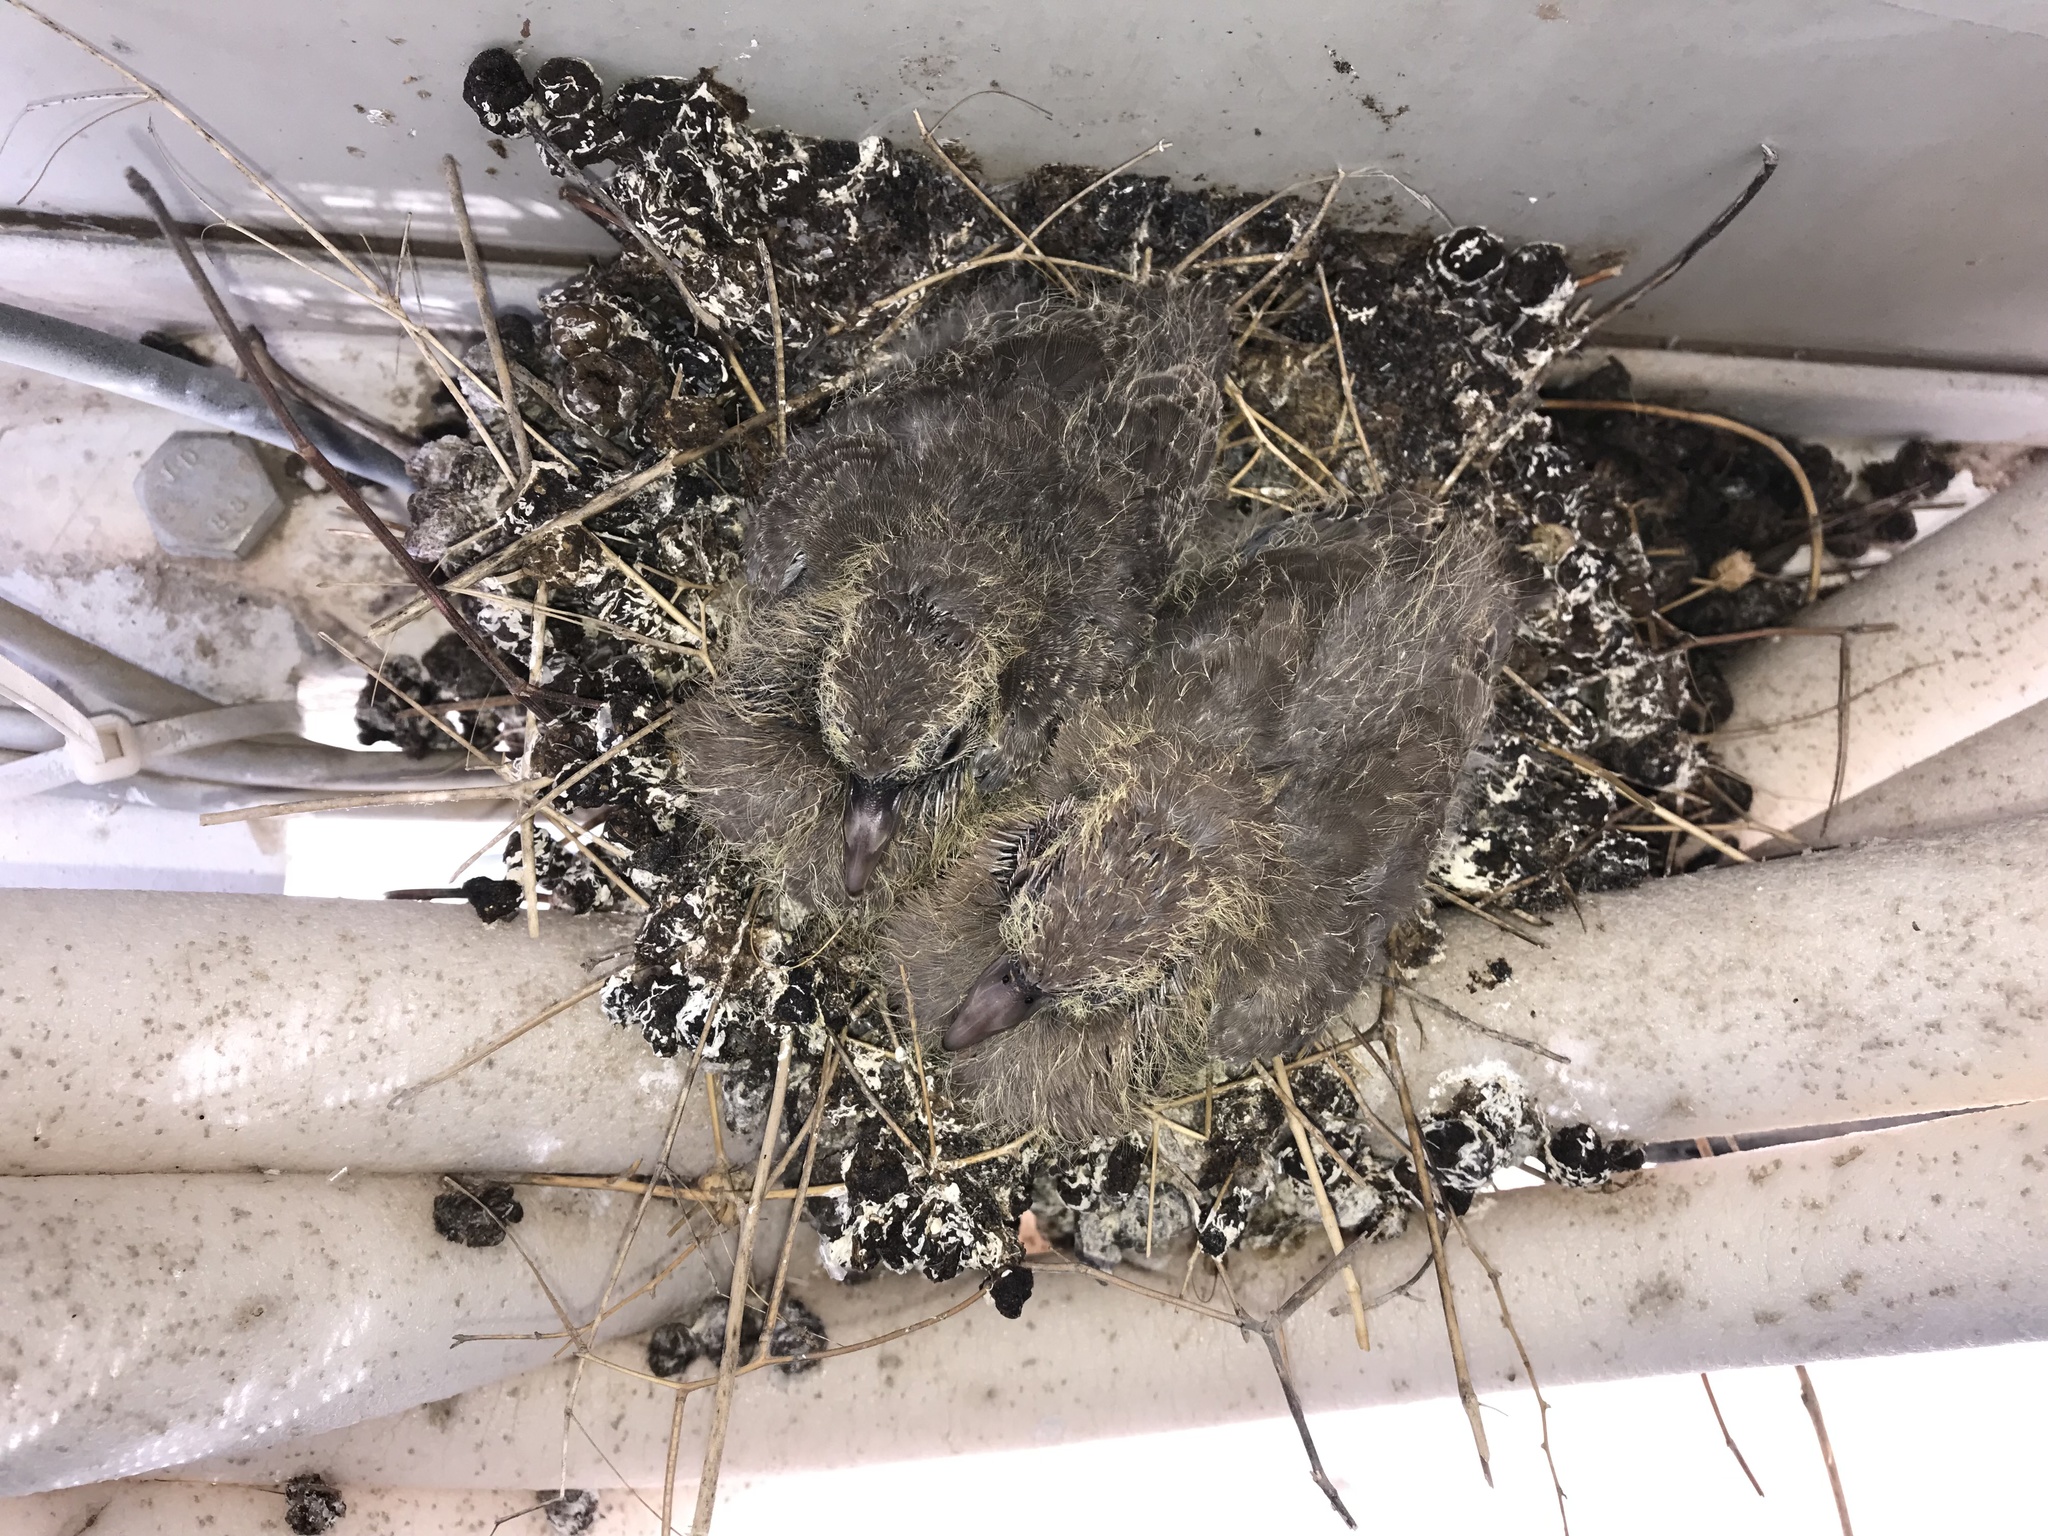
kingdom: Animalia
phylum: Chordata
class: Aves
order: Columbiformes
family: Columbidae
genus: Spilopelia
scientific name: Spilopelia senegalensis
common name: Laughing dove
